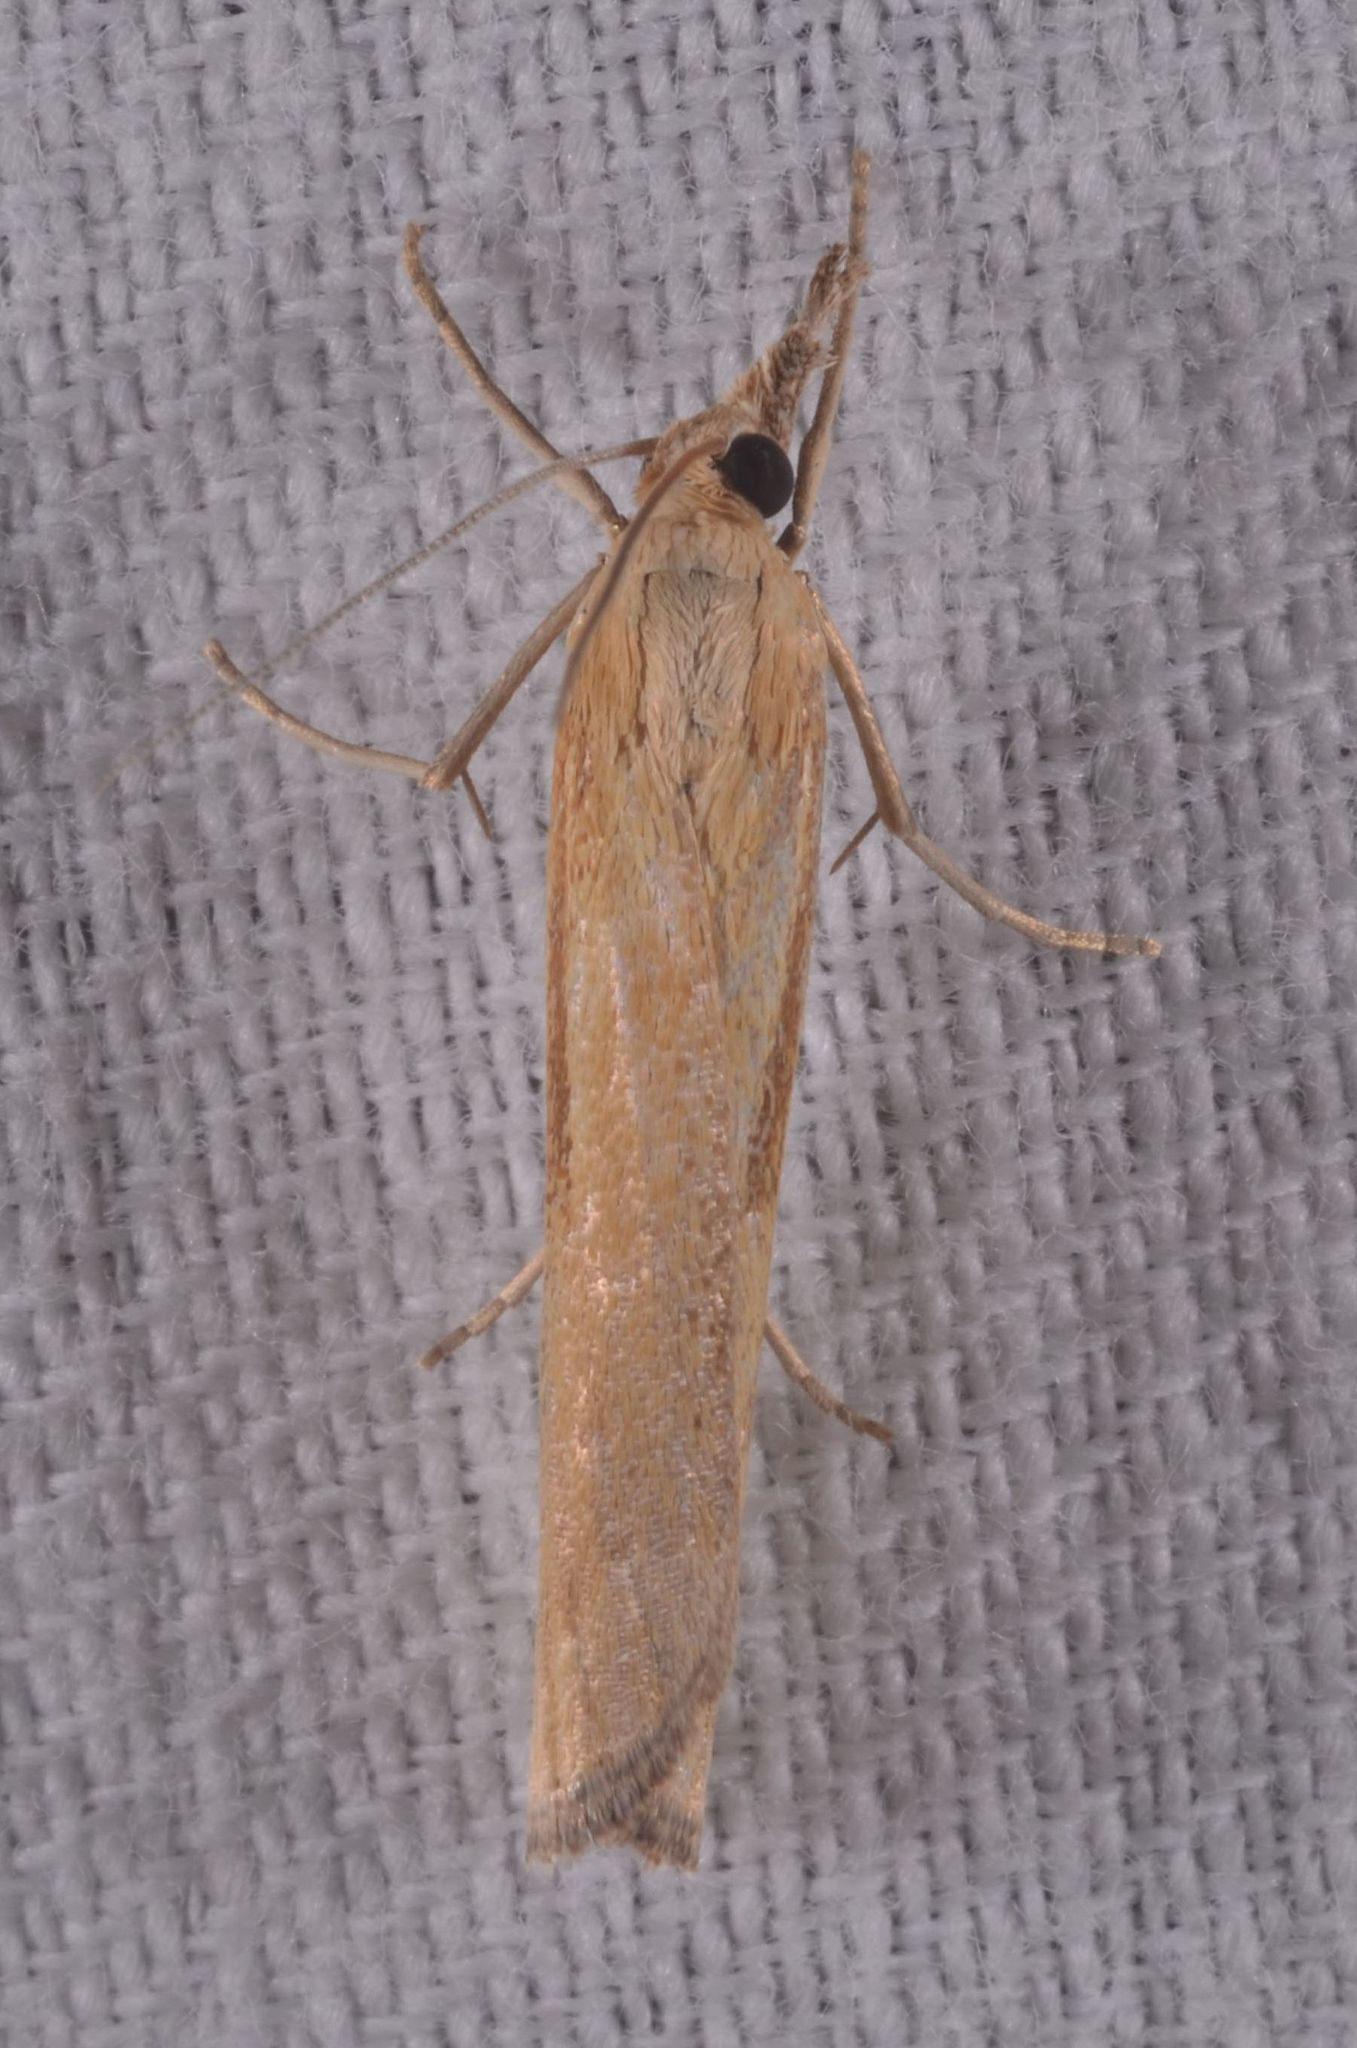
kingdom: Animalia
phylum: Arthropoda
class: Insecta
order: Lepidoptera
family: Crambidae
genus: Agriphila
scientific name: Agriphila tristellus
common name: Common grass-veneer
